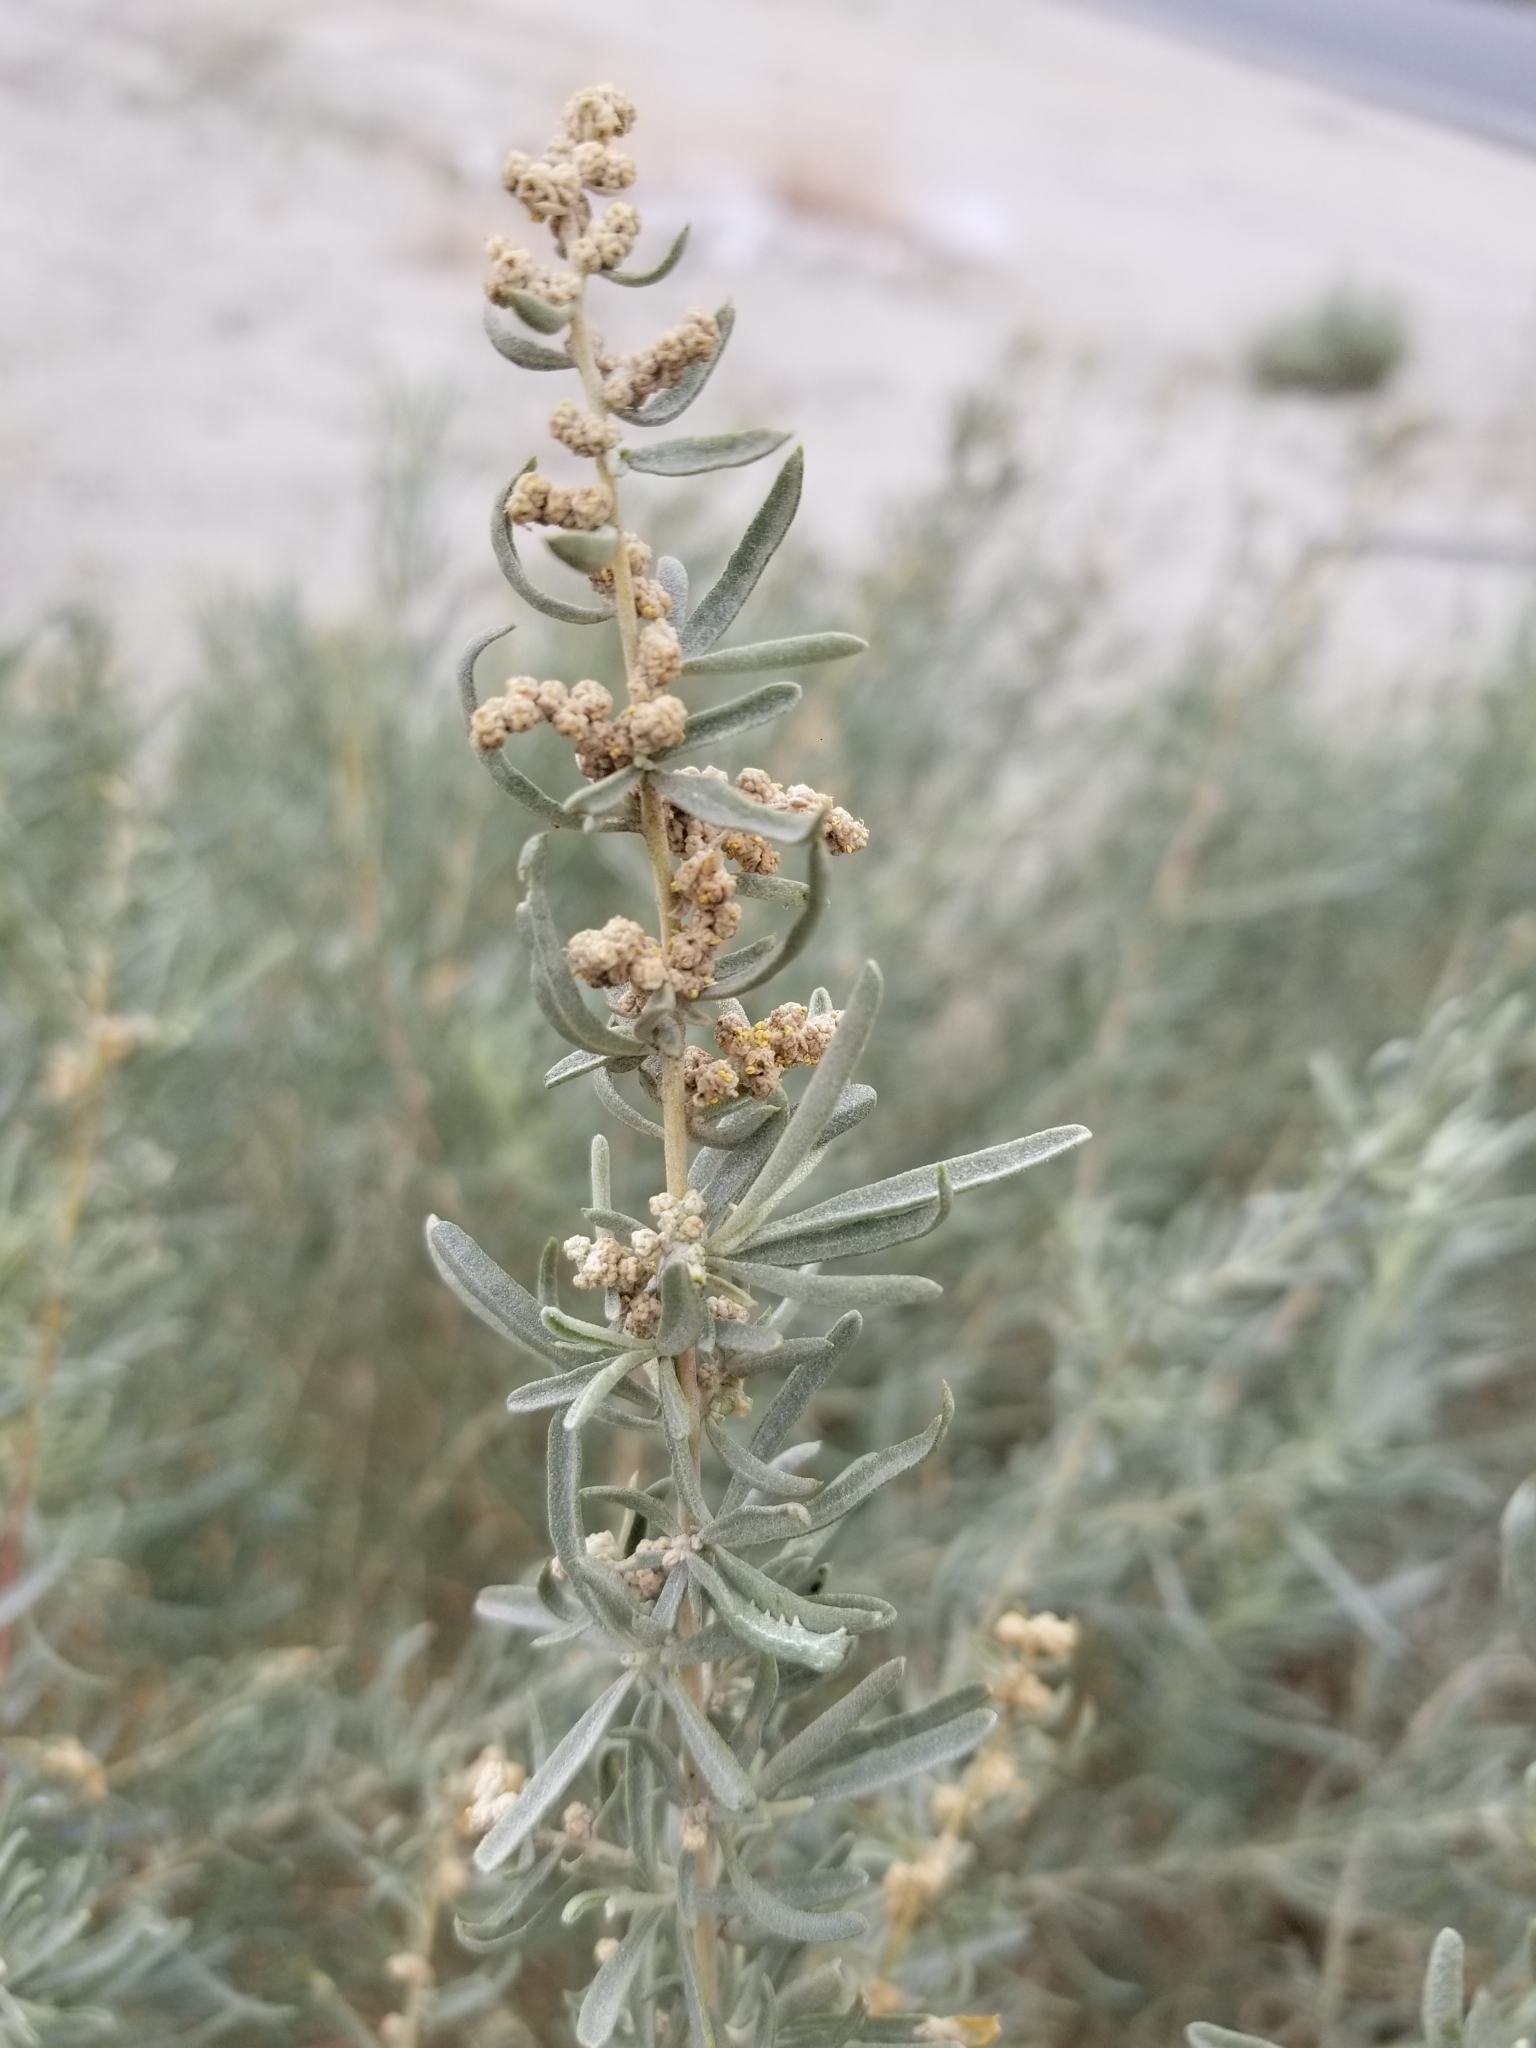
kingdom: Plantae
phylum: Tracheophyta
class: Magnoliopsida
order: Caryophyllales
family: Amaranthaceae
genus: Atriplex
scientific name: Atriplex canescens
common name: Four-wing saltbush
